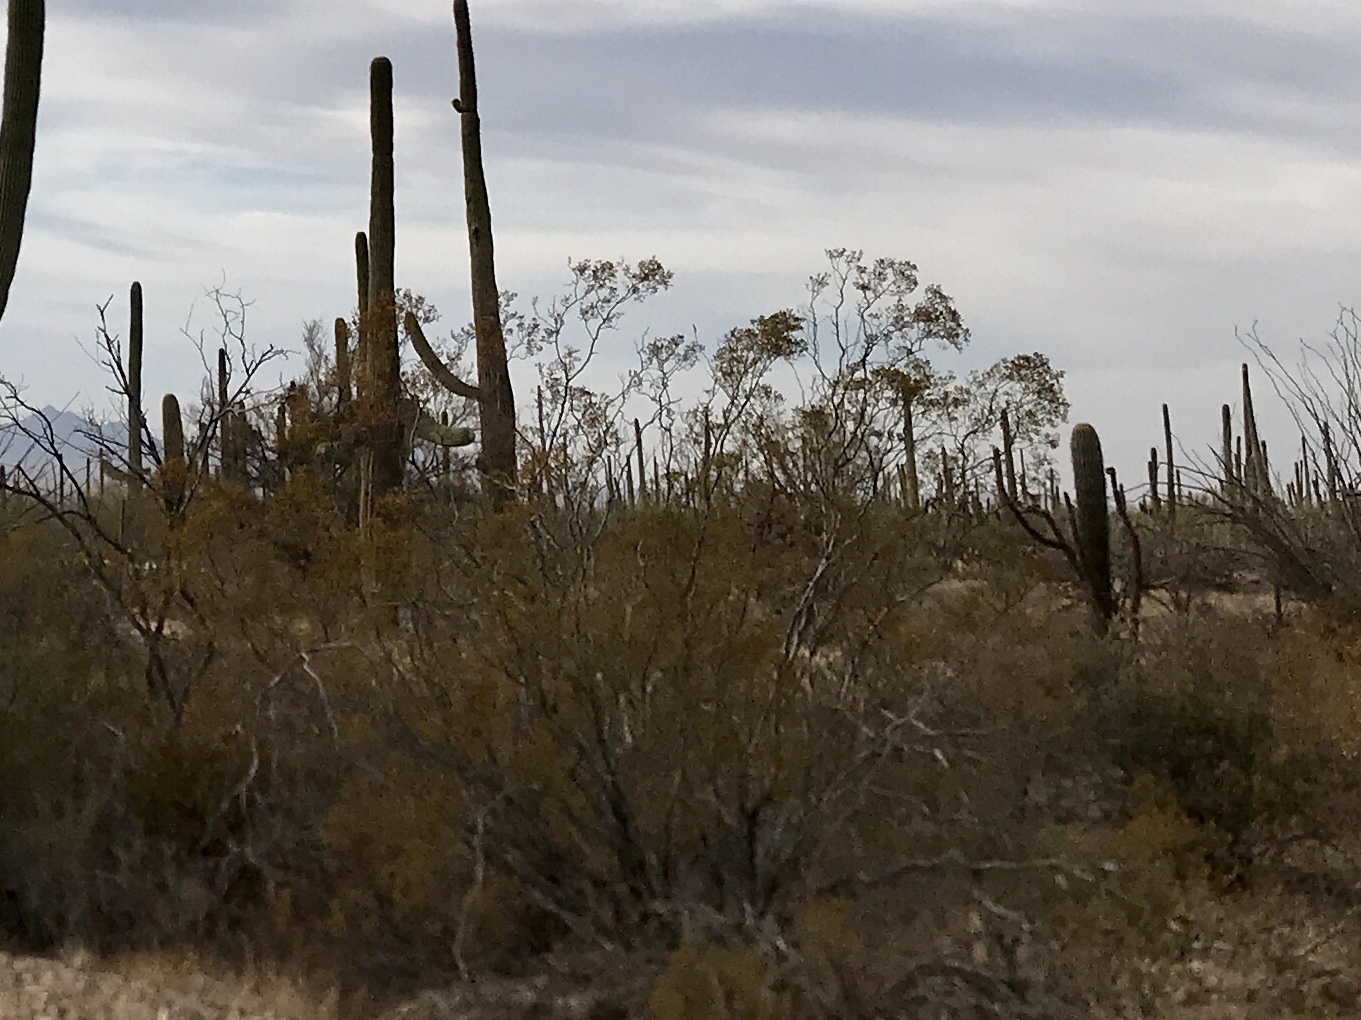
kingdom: Plantae
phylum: Tracheophyta
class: Magnoliopsida
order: Zygophyllales
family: Zygophyllaceae
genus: Larrea
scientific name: Larrea tridentata
